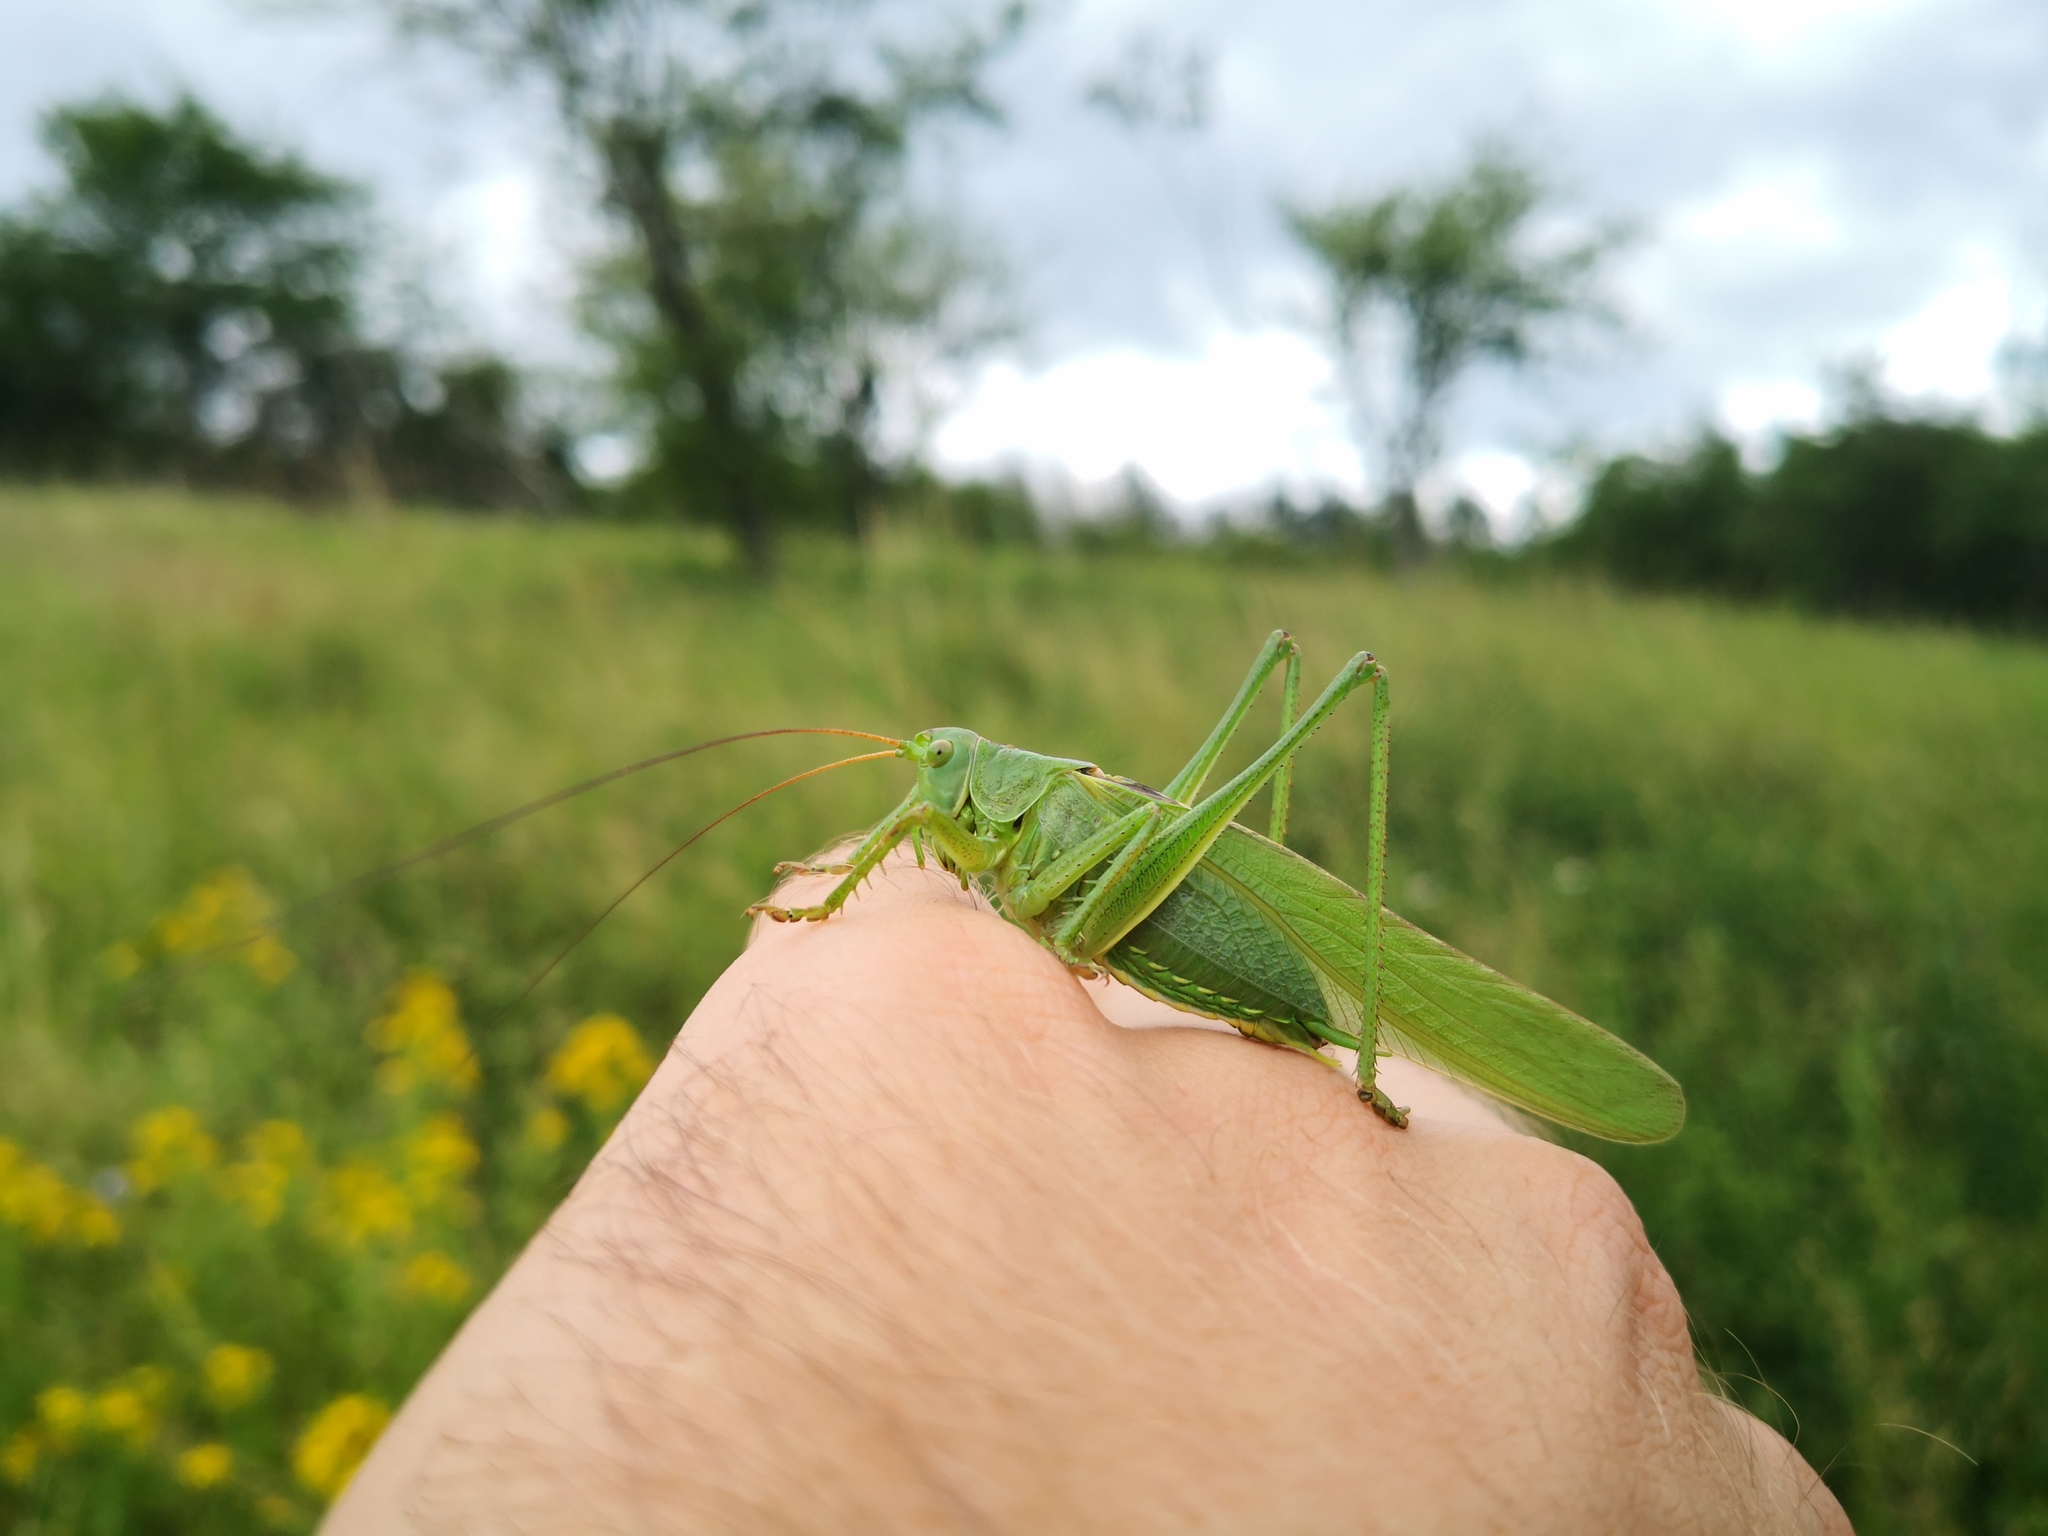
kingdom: Animalia
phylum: Arthropoda
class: Insecta
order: Orthoptera
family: Tettigoniidae
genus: Tettigonia
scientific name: Tettigonia viridissima
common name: Great green bush-cricket
